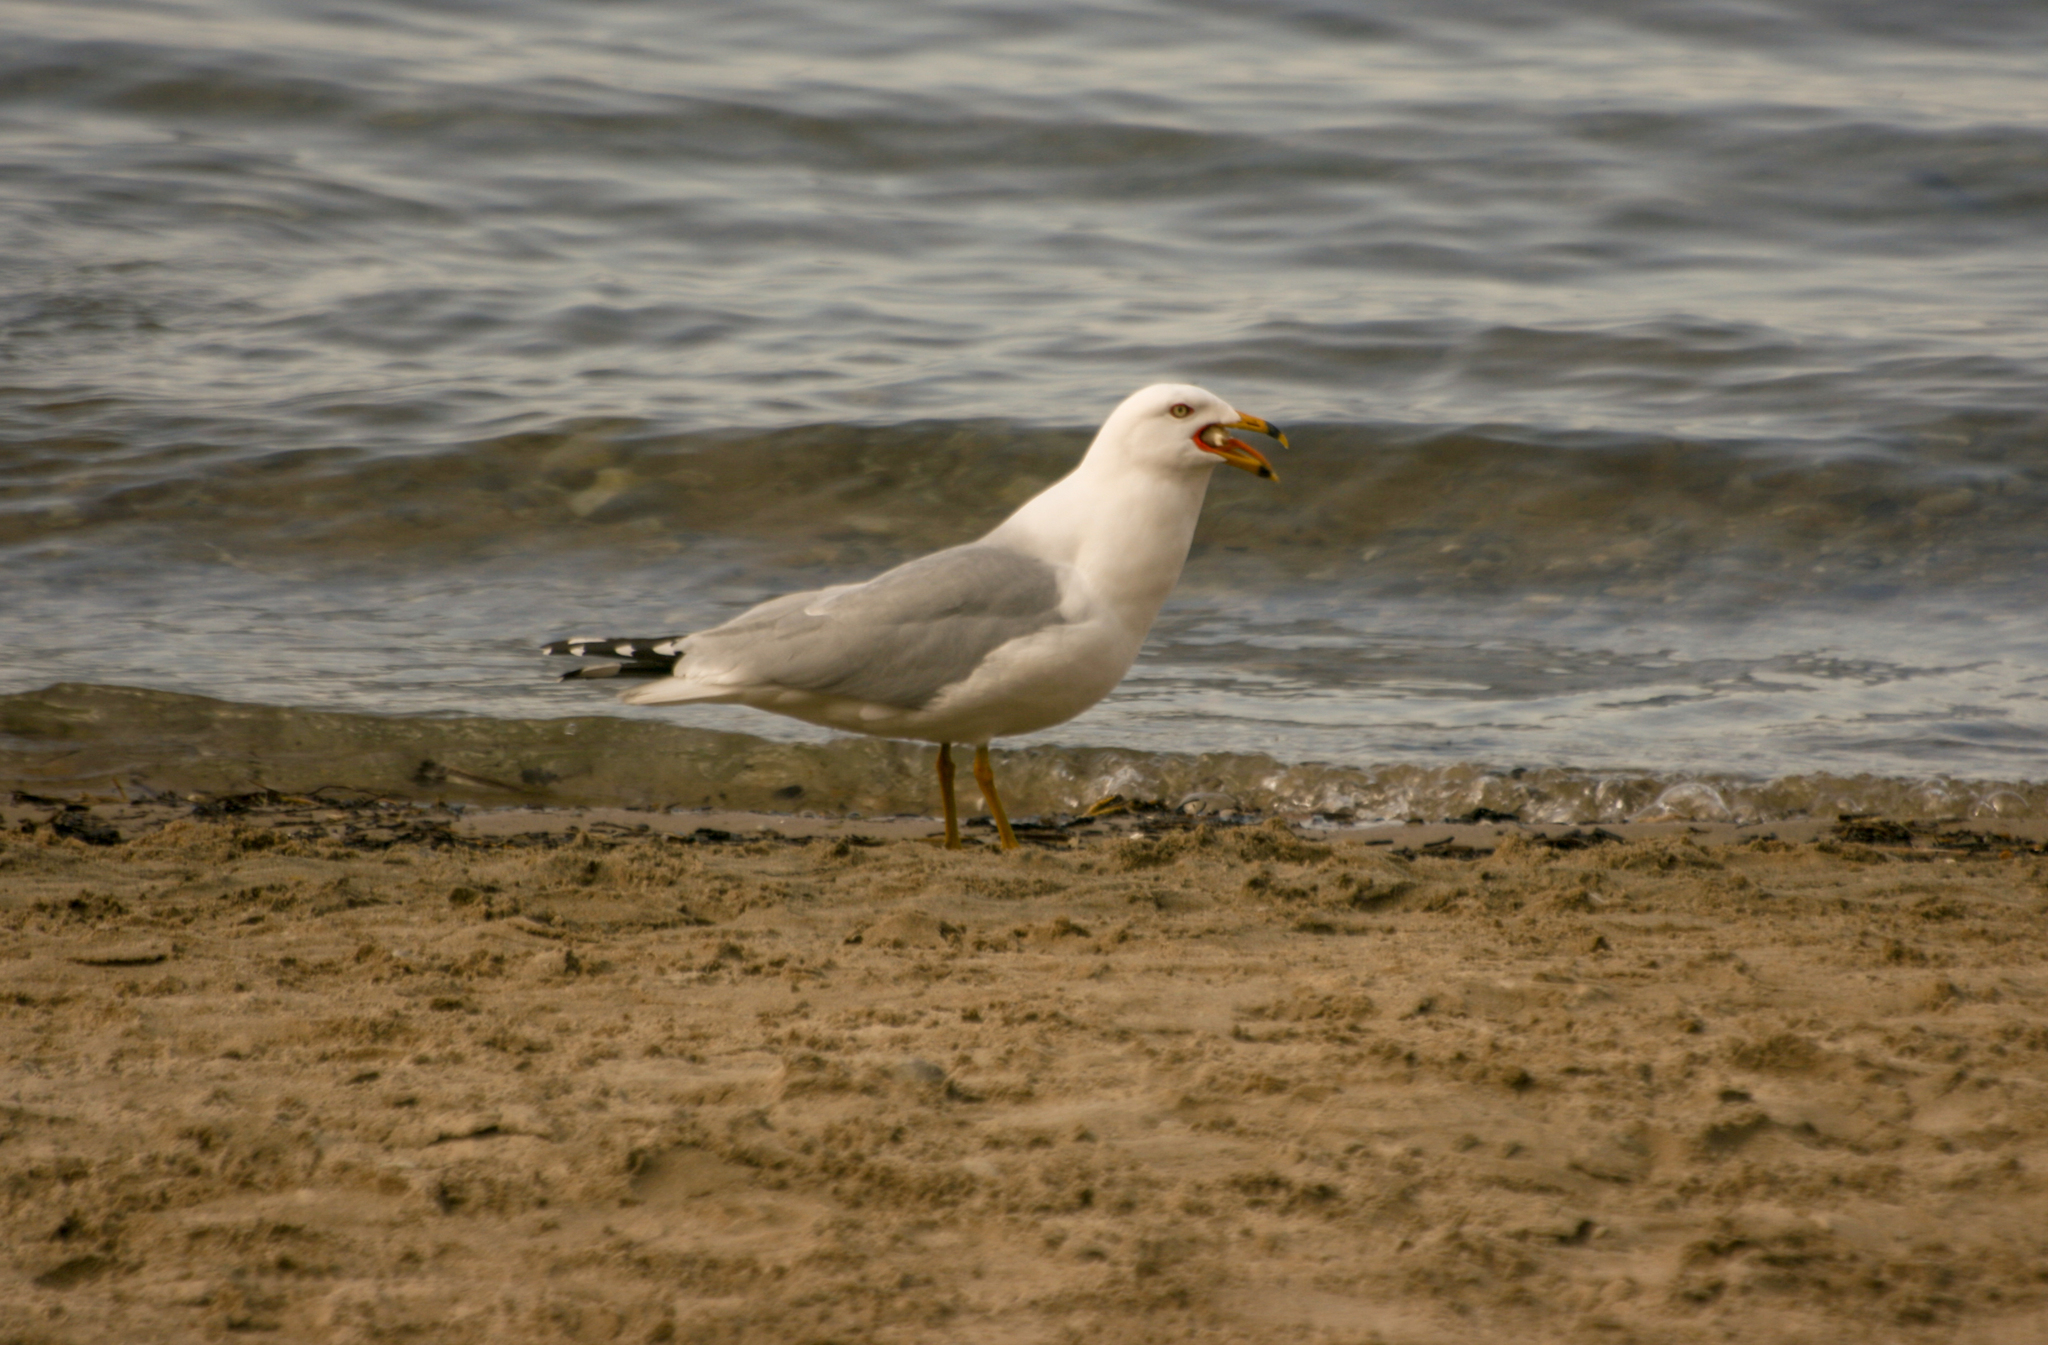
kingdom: Animalia
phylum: Chordata
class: Aves
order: Charadriiformes
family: Laridae
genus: Larus
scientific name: Larus delawarensis
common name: Ring-billed gull
